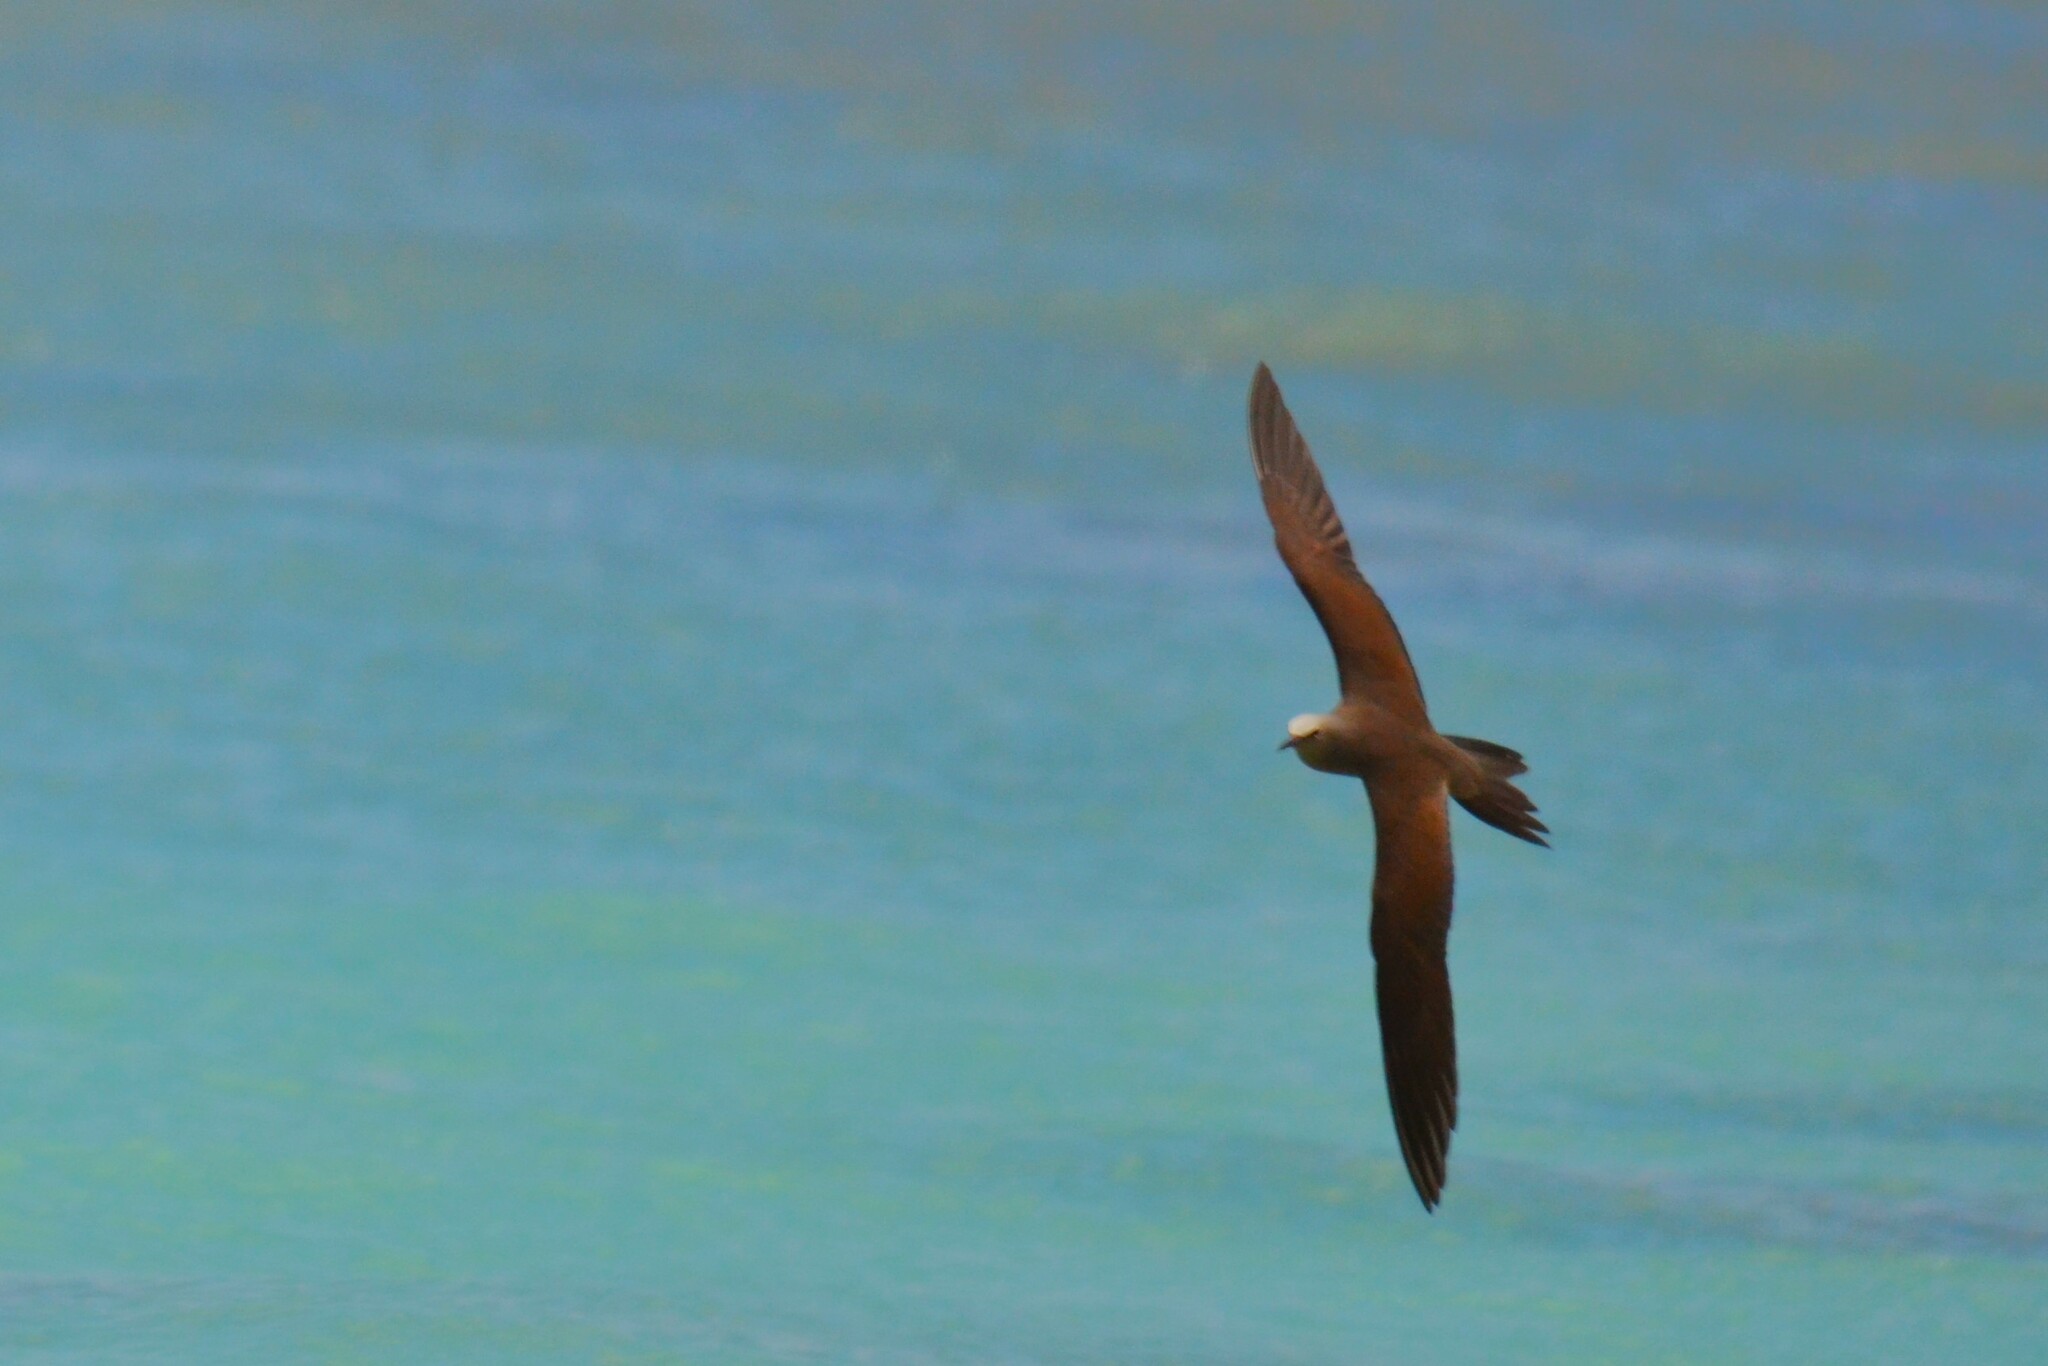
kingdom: Animalia
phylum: Chordata
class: Aves
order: Charadriiformes
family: Laridae
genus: Anous
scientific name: Anous stolidus
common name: Brown noddy
